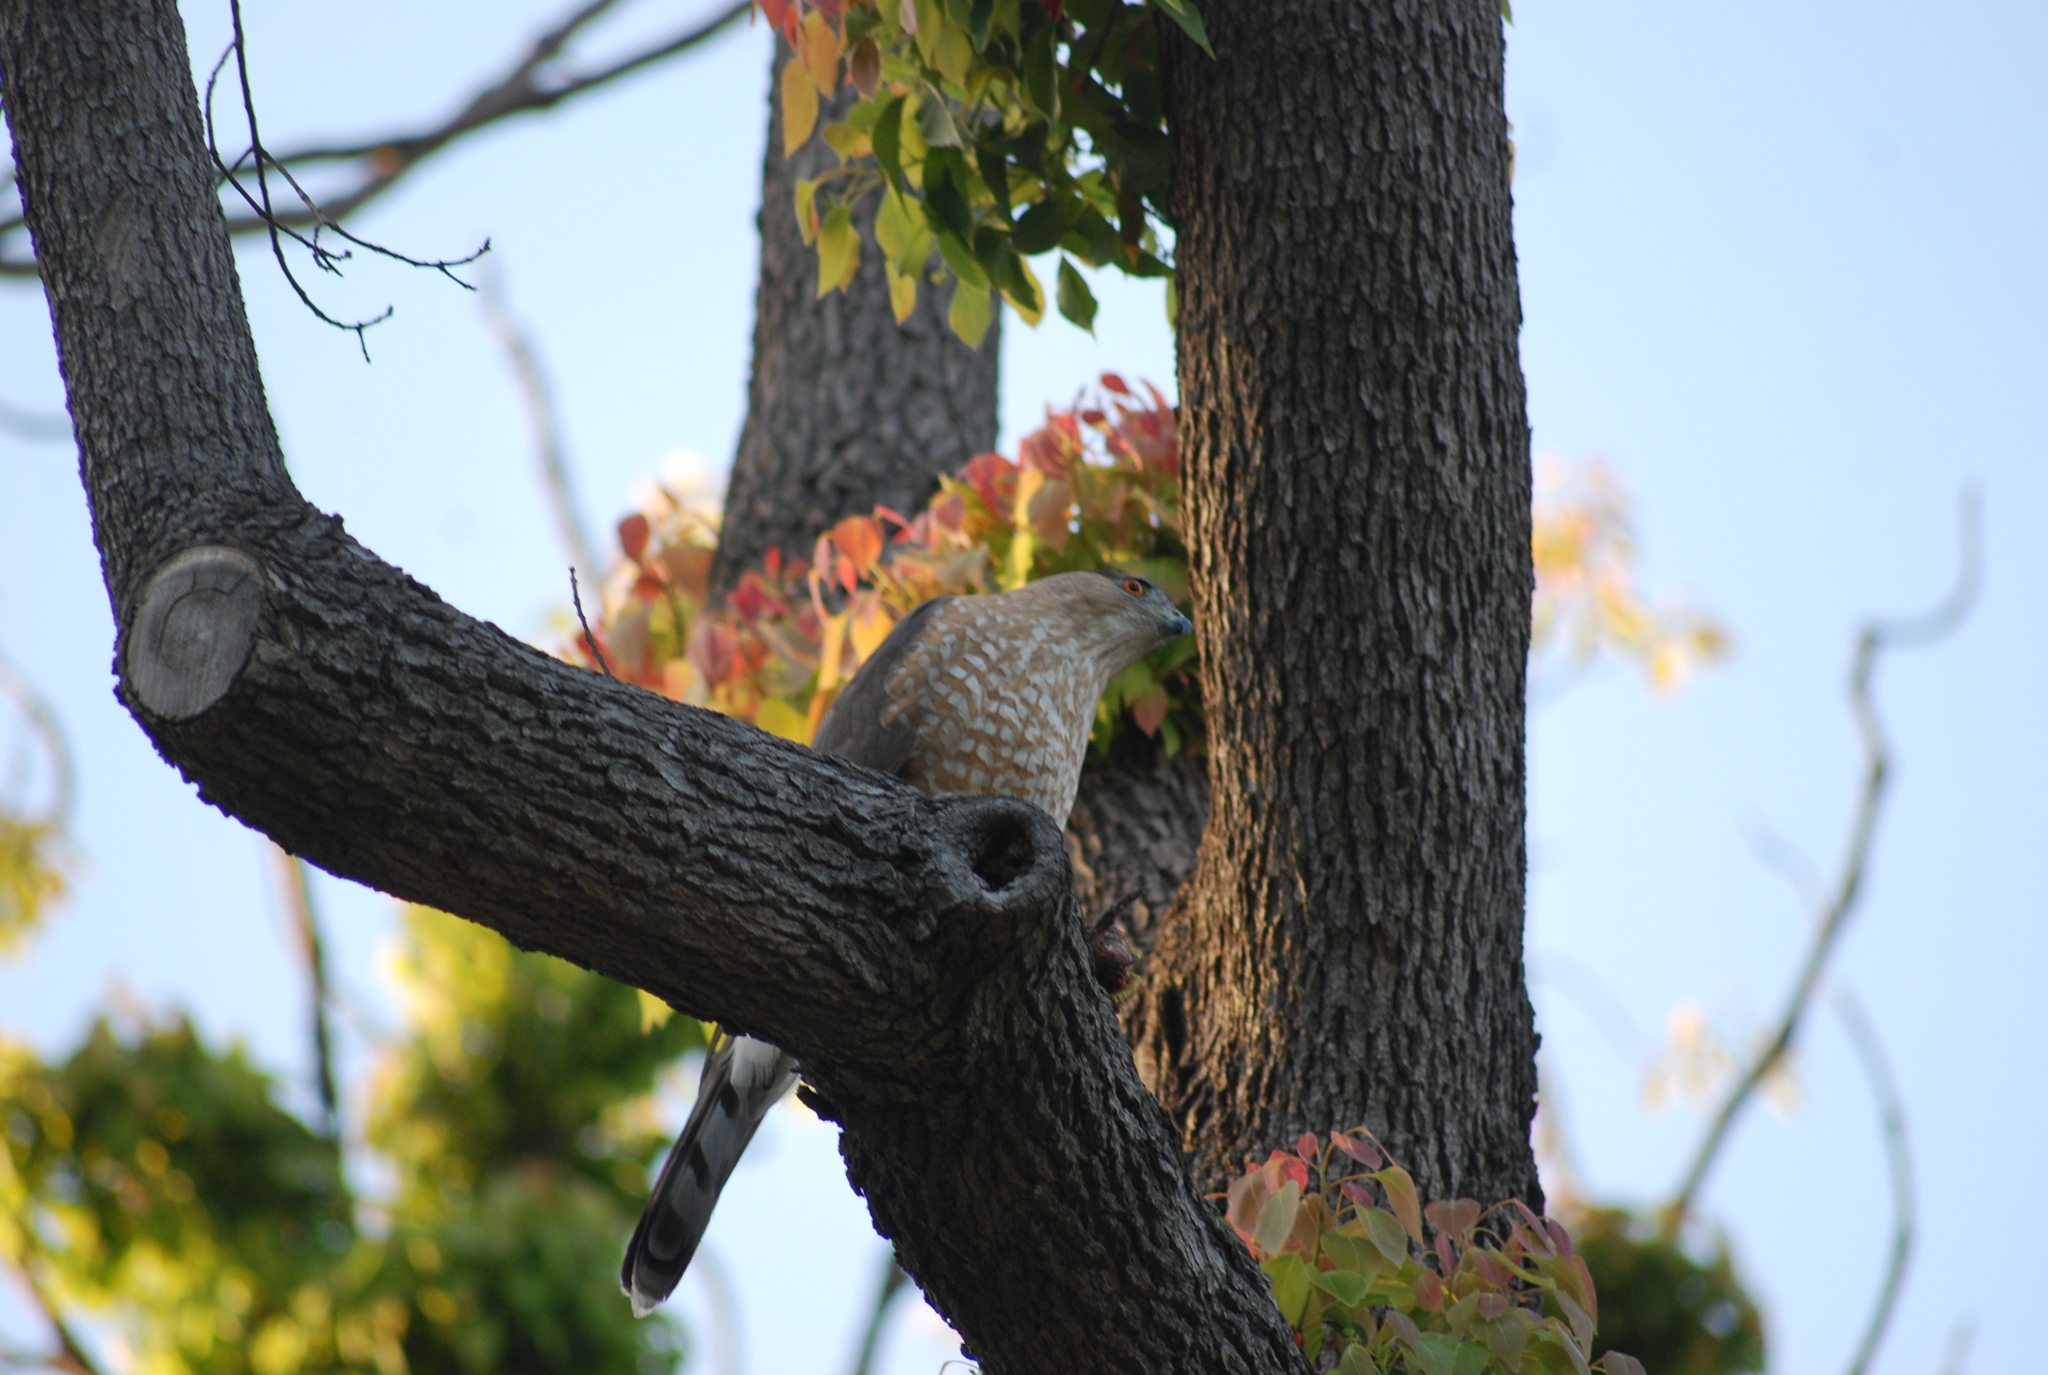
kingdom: Animalia
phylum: Chordata
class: Aves
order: Accipitriformes
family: Accipitridae
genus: Accipiter
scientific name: Accipiter cooperii
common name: Cooper's hawk
